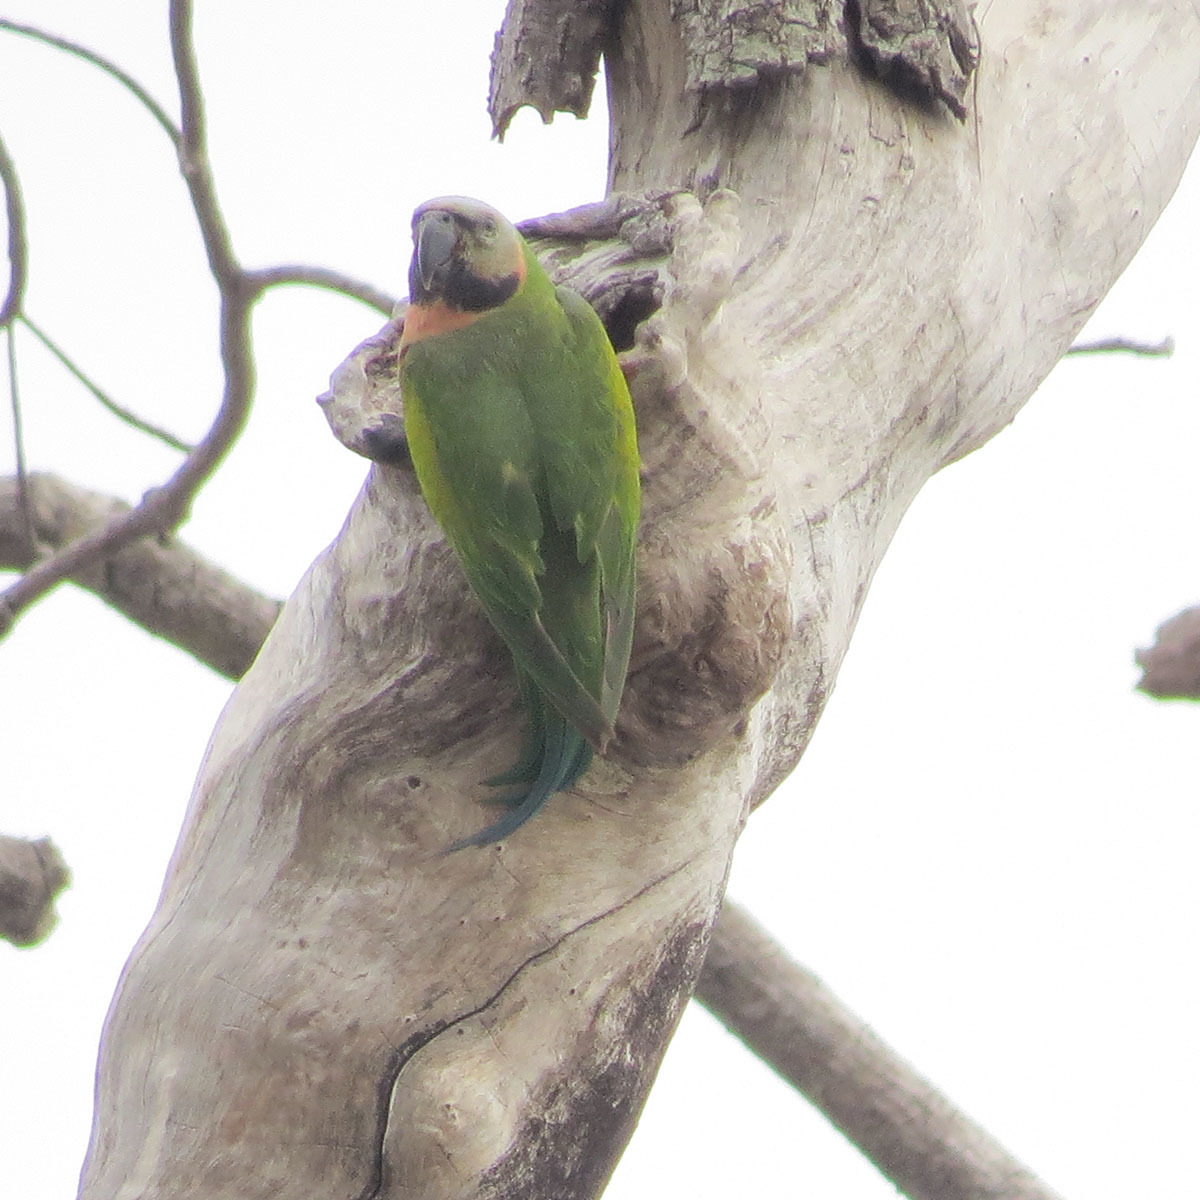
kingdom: Animalia
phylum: Chordata
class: Aves
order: Psittaciformes
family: Psittacidae
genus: Psittacula
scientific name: Psittacula alexandri
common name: Red-breasted parakeet
